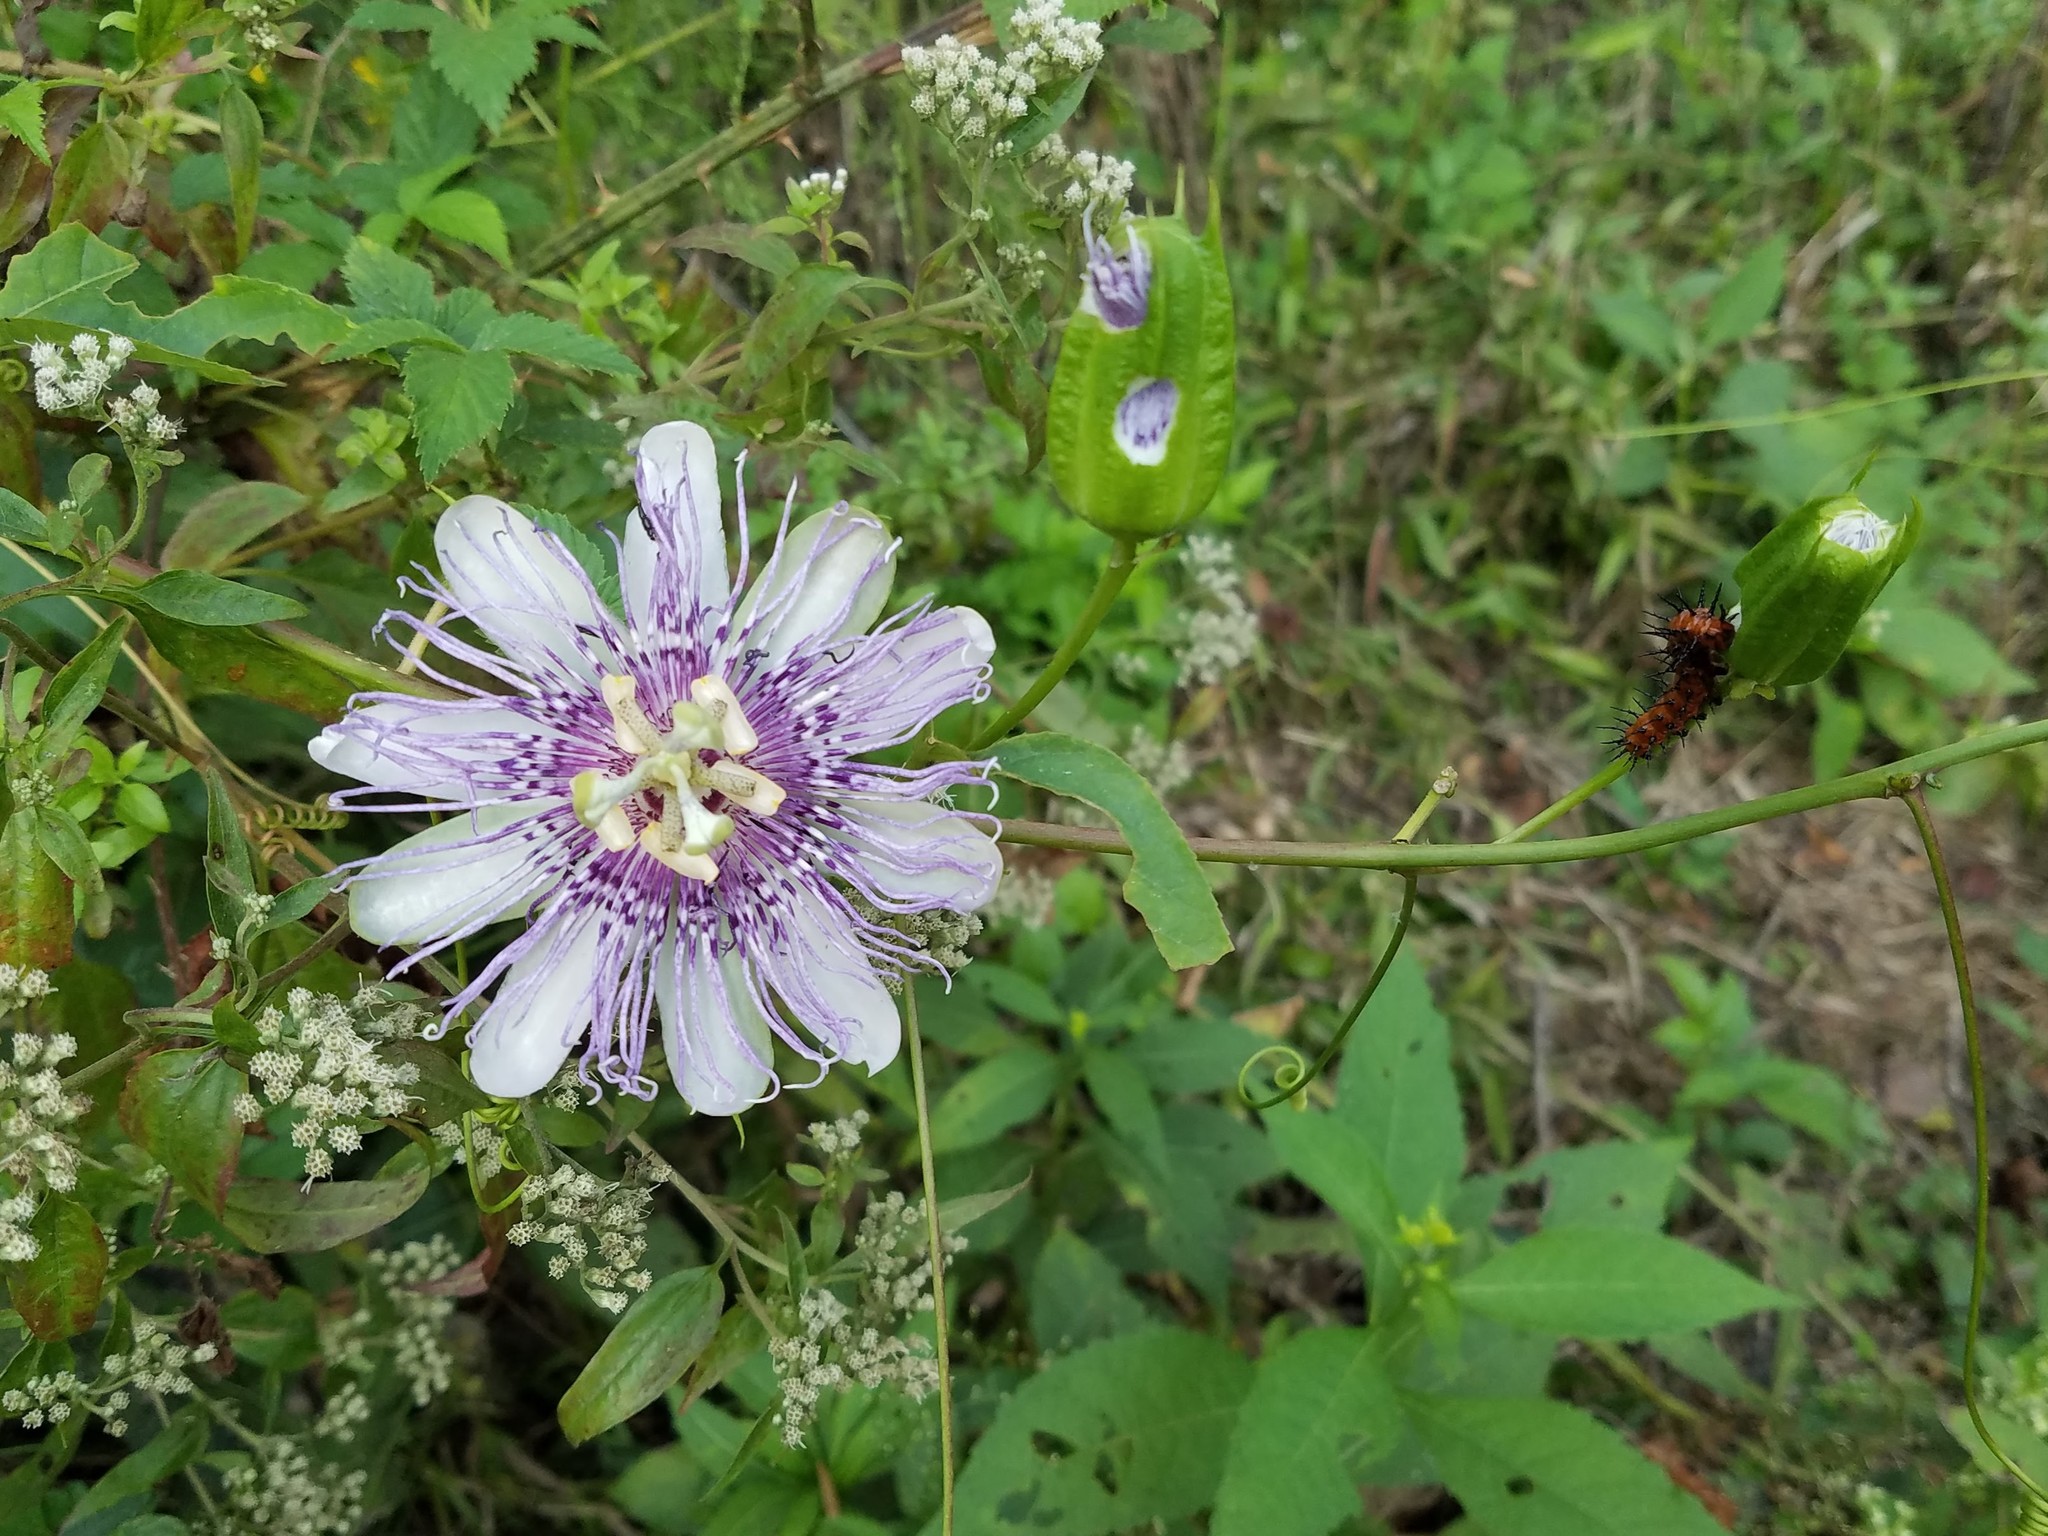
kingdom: Plantae
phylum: Tracheophyta
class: Magnoliopsida
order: Malpighiales
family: Passifloraceae
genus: Passiflora
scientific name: Passiflora incarnata
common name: Apricot-vine
